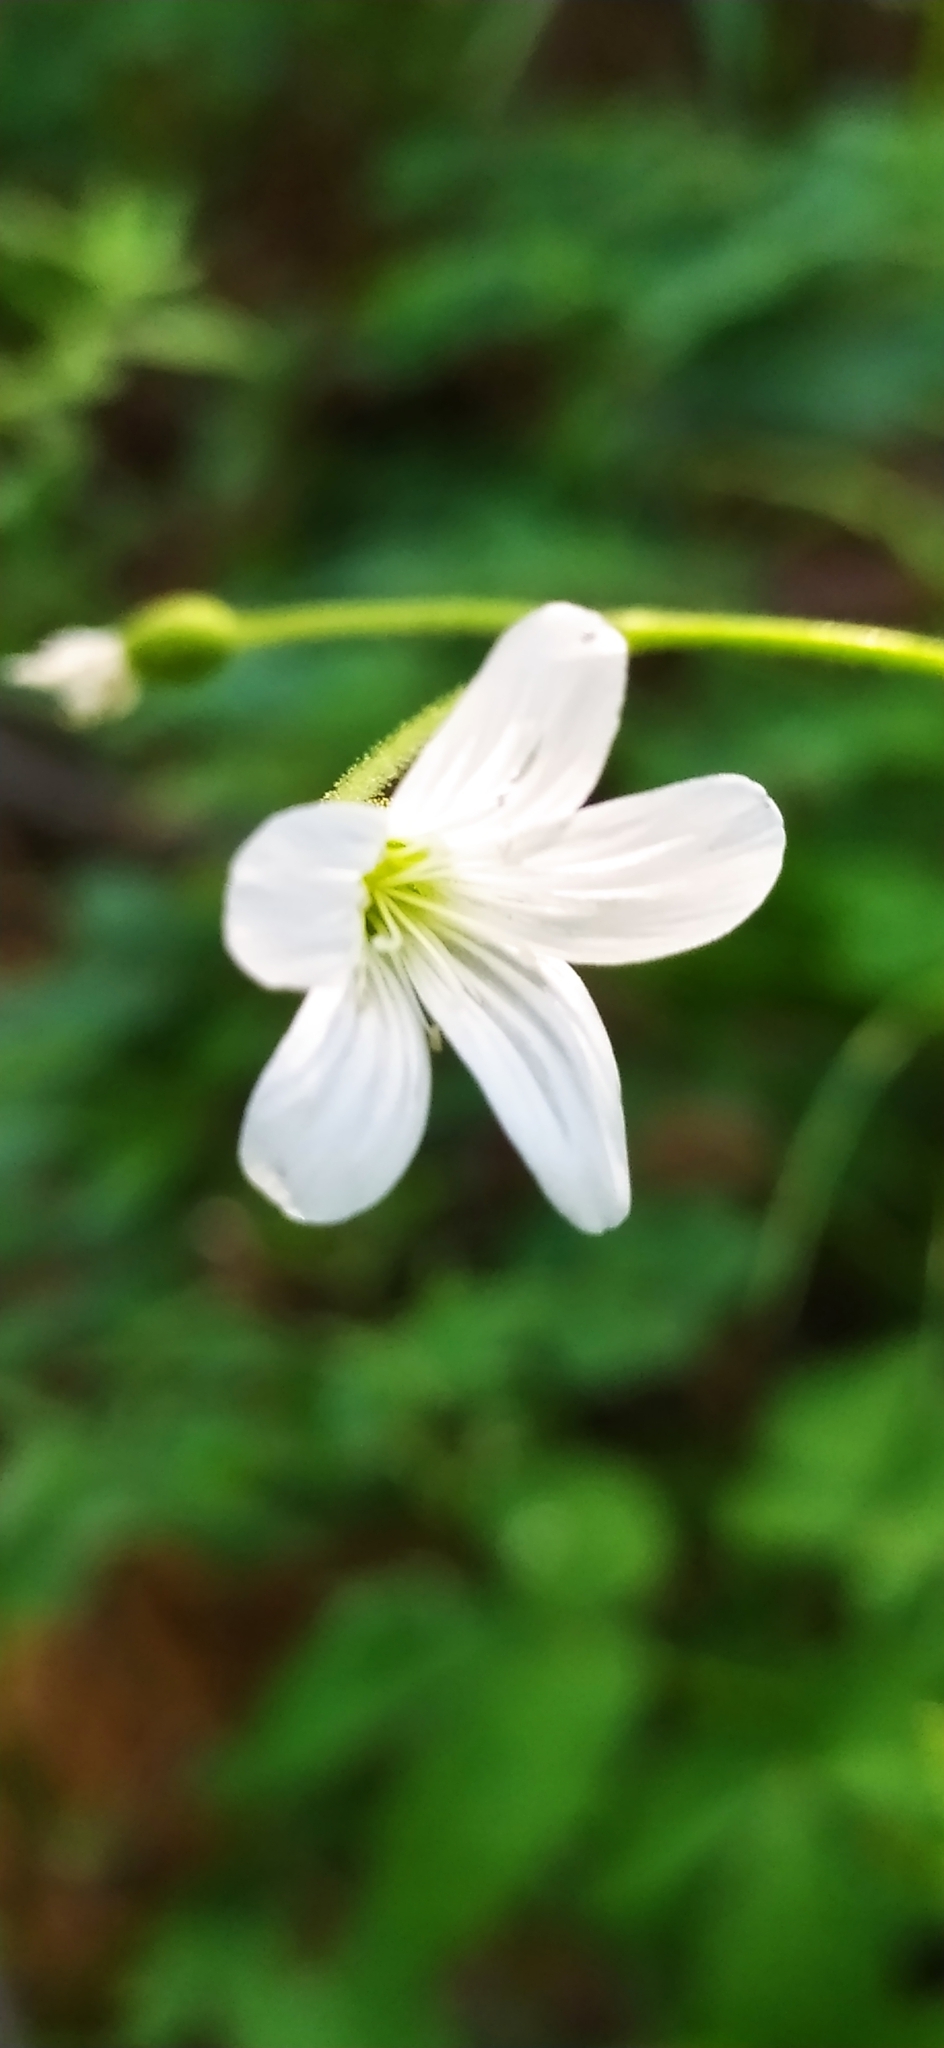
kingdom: Plantae
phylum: Tracheophyta
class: Magnoliopsida
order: Caryophyllales
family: Caryophyllaceae
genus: Cerastium
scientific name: Cerastium pauciflorum
